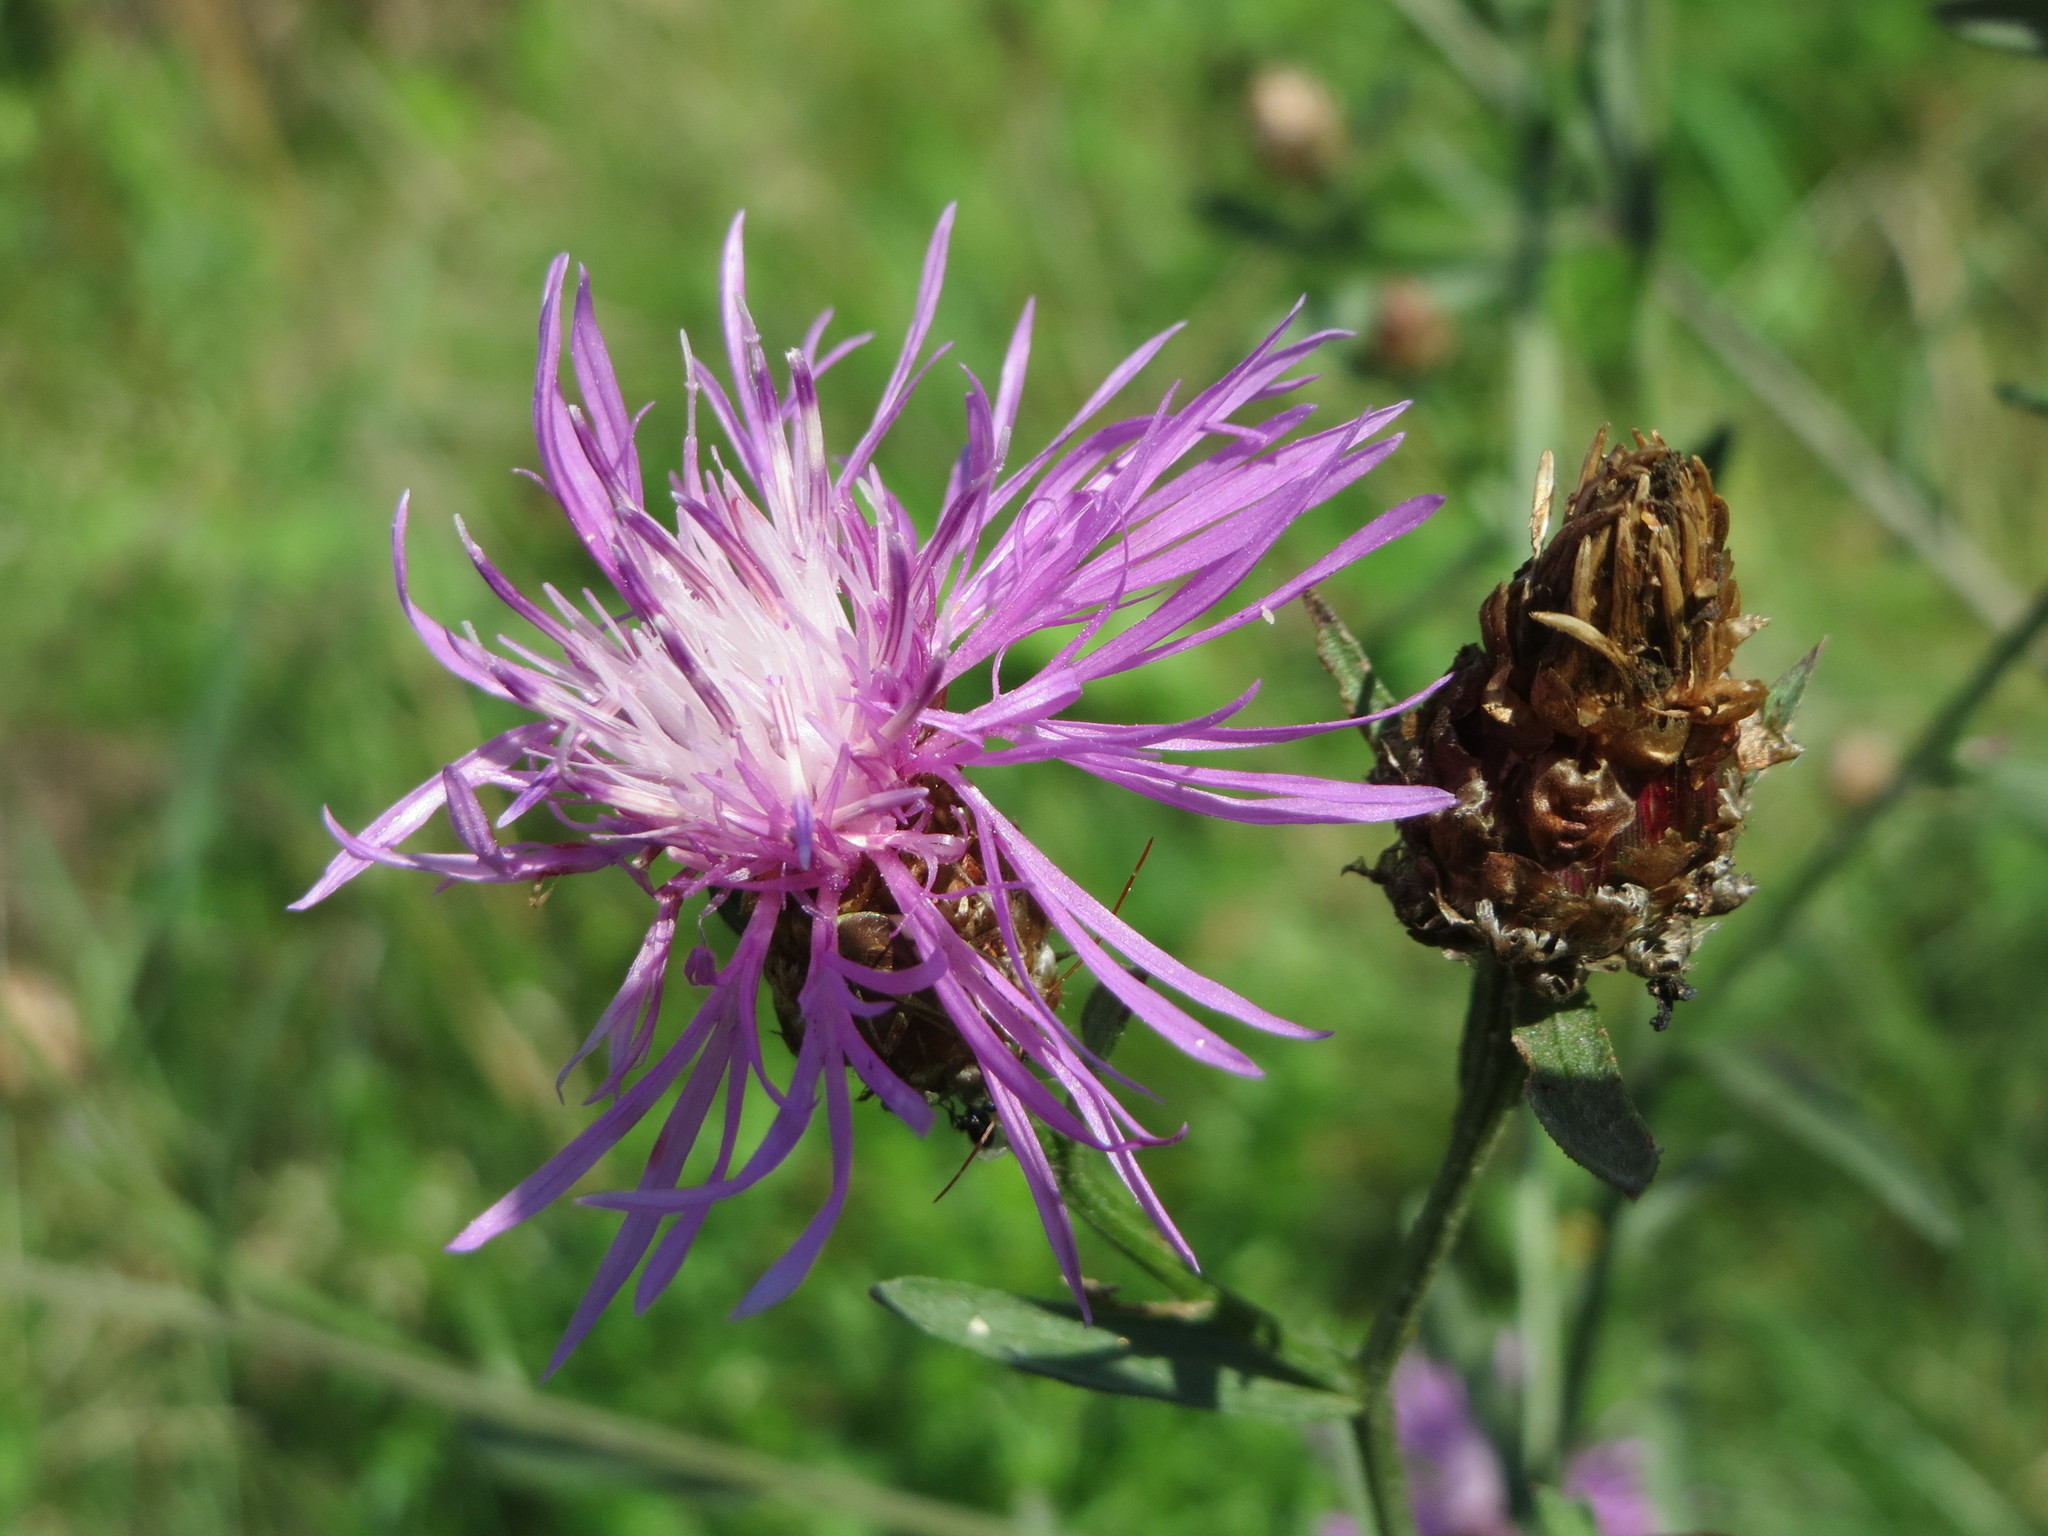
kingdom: Plantae
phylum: Tracheophyta
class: Magnoliopsida
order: Asterales
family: Asteraceae
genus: Centaurea
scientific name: Centaurea jacea
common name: Brown knapweed
